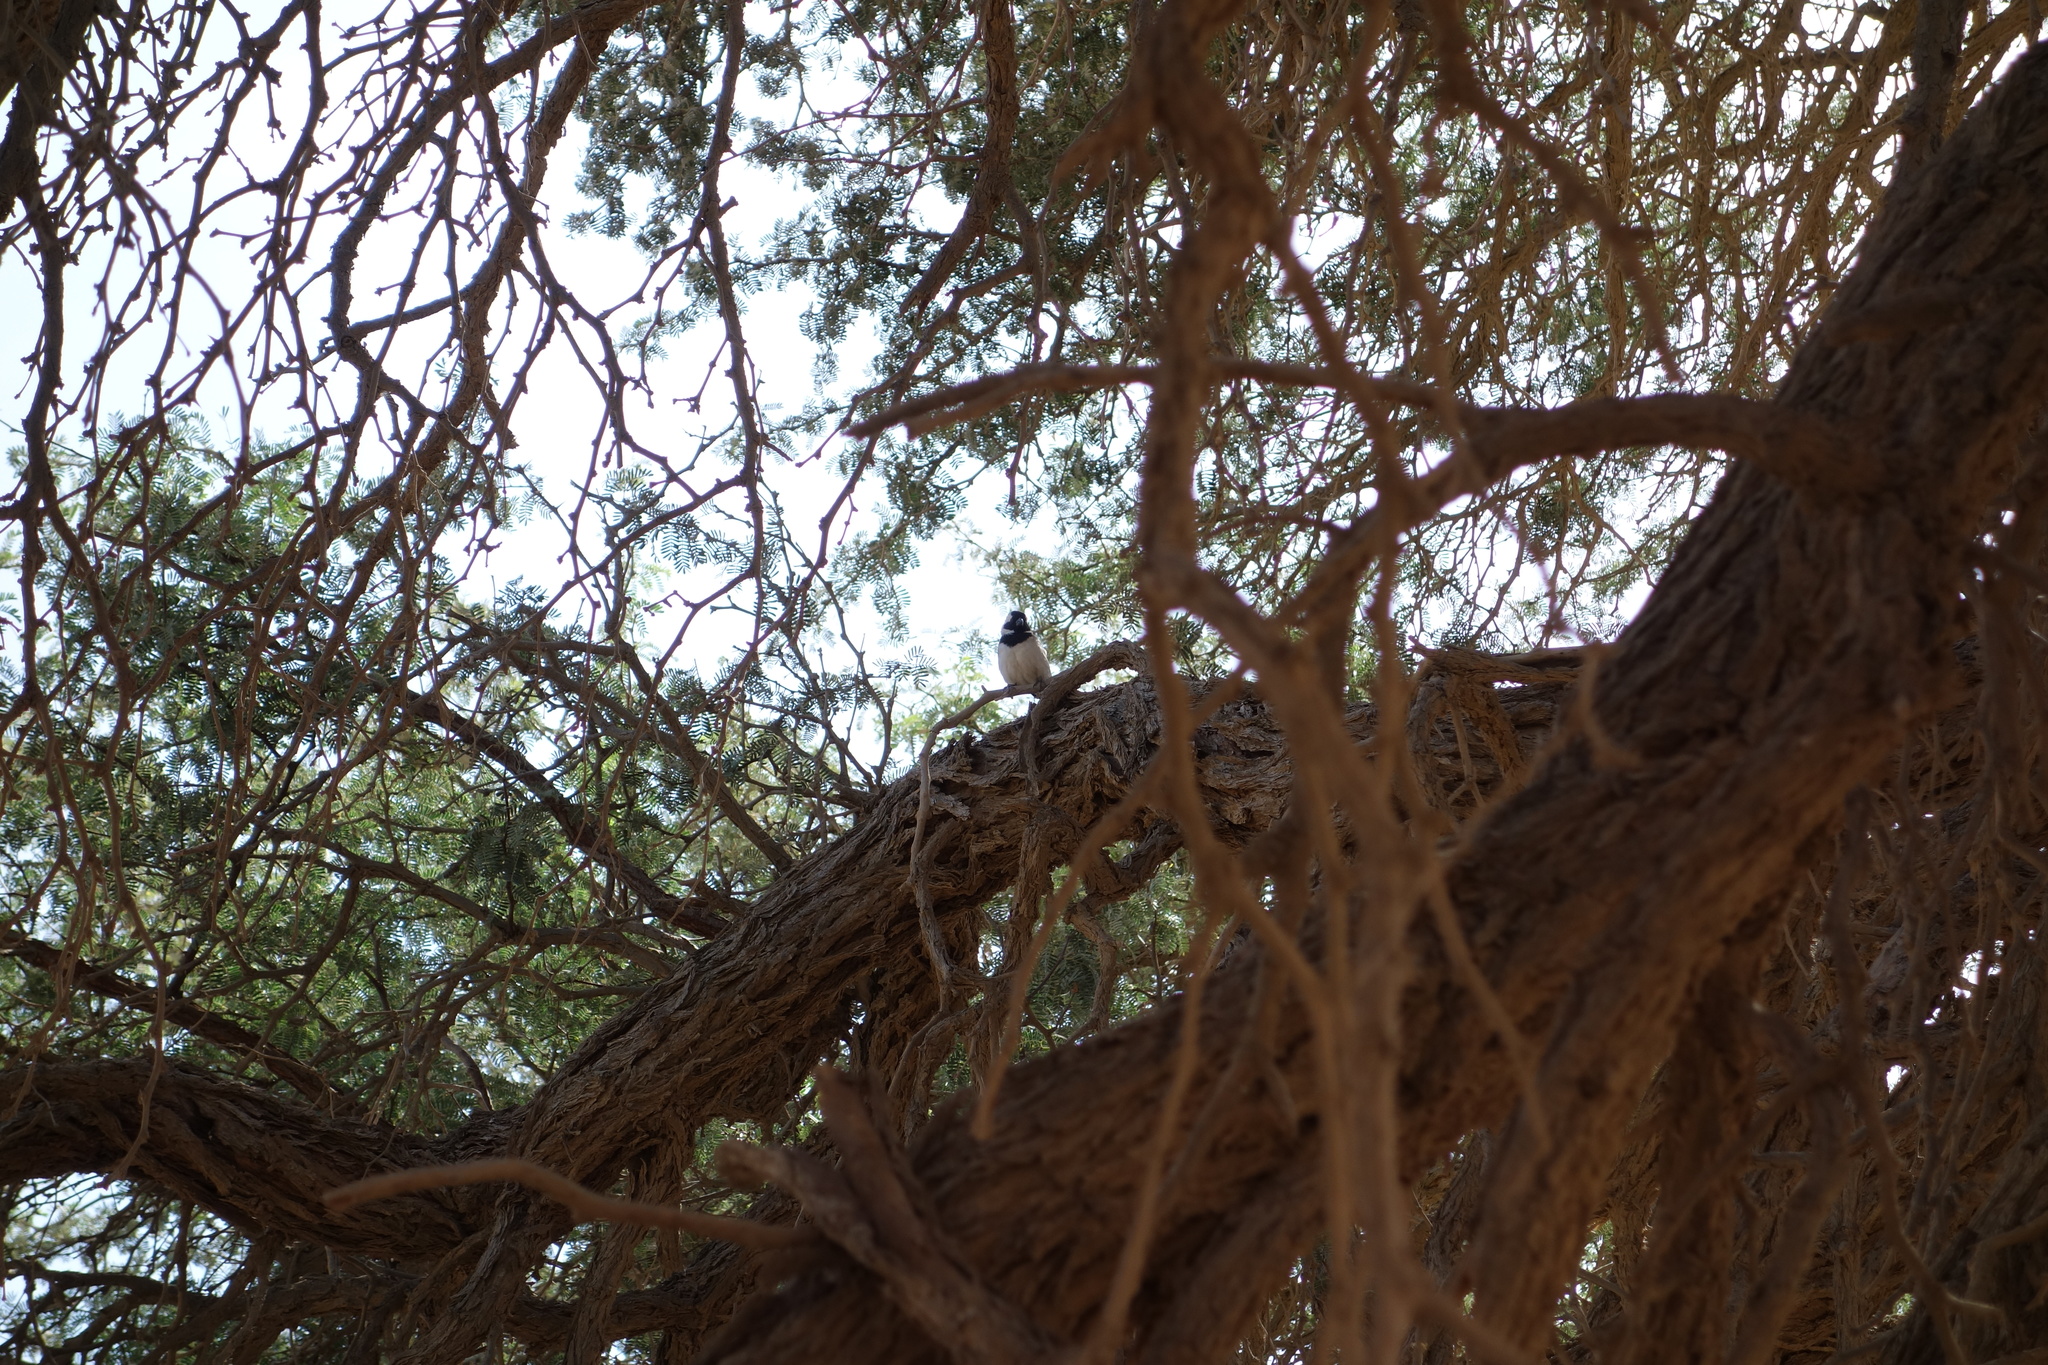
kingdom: Animalia
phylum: Chordata
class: Aves
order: Passeriformes
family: Passeridae
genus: Passer
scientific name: Passer melanurus
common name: Cape sparrow
